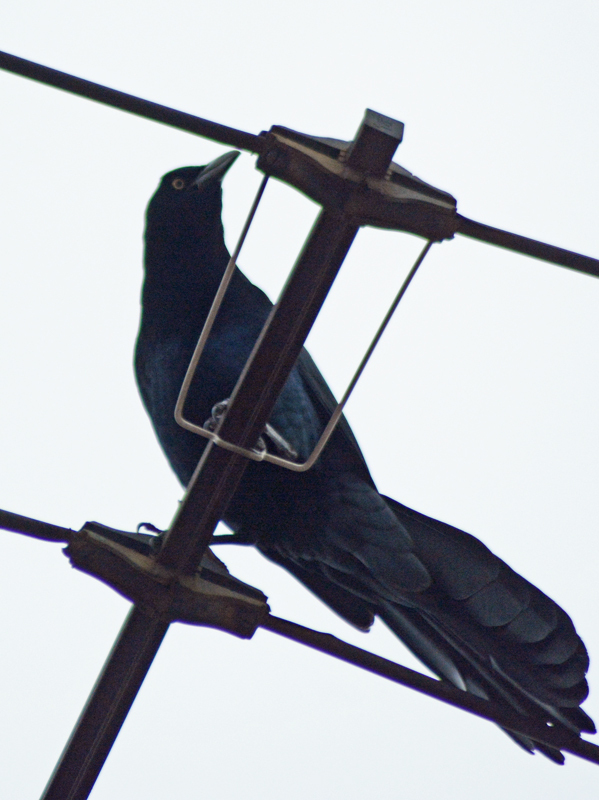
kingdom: Animalia
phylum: Chordata
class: Aves
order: Passeriformes
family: Icteridae
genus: Quiscalus
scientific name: Quiscalus mexicanus
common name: Great-tailed grackle
